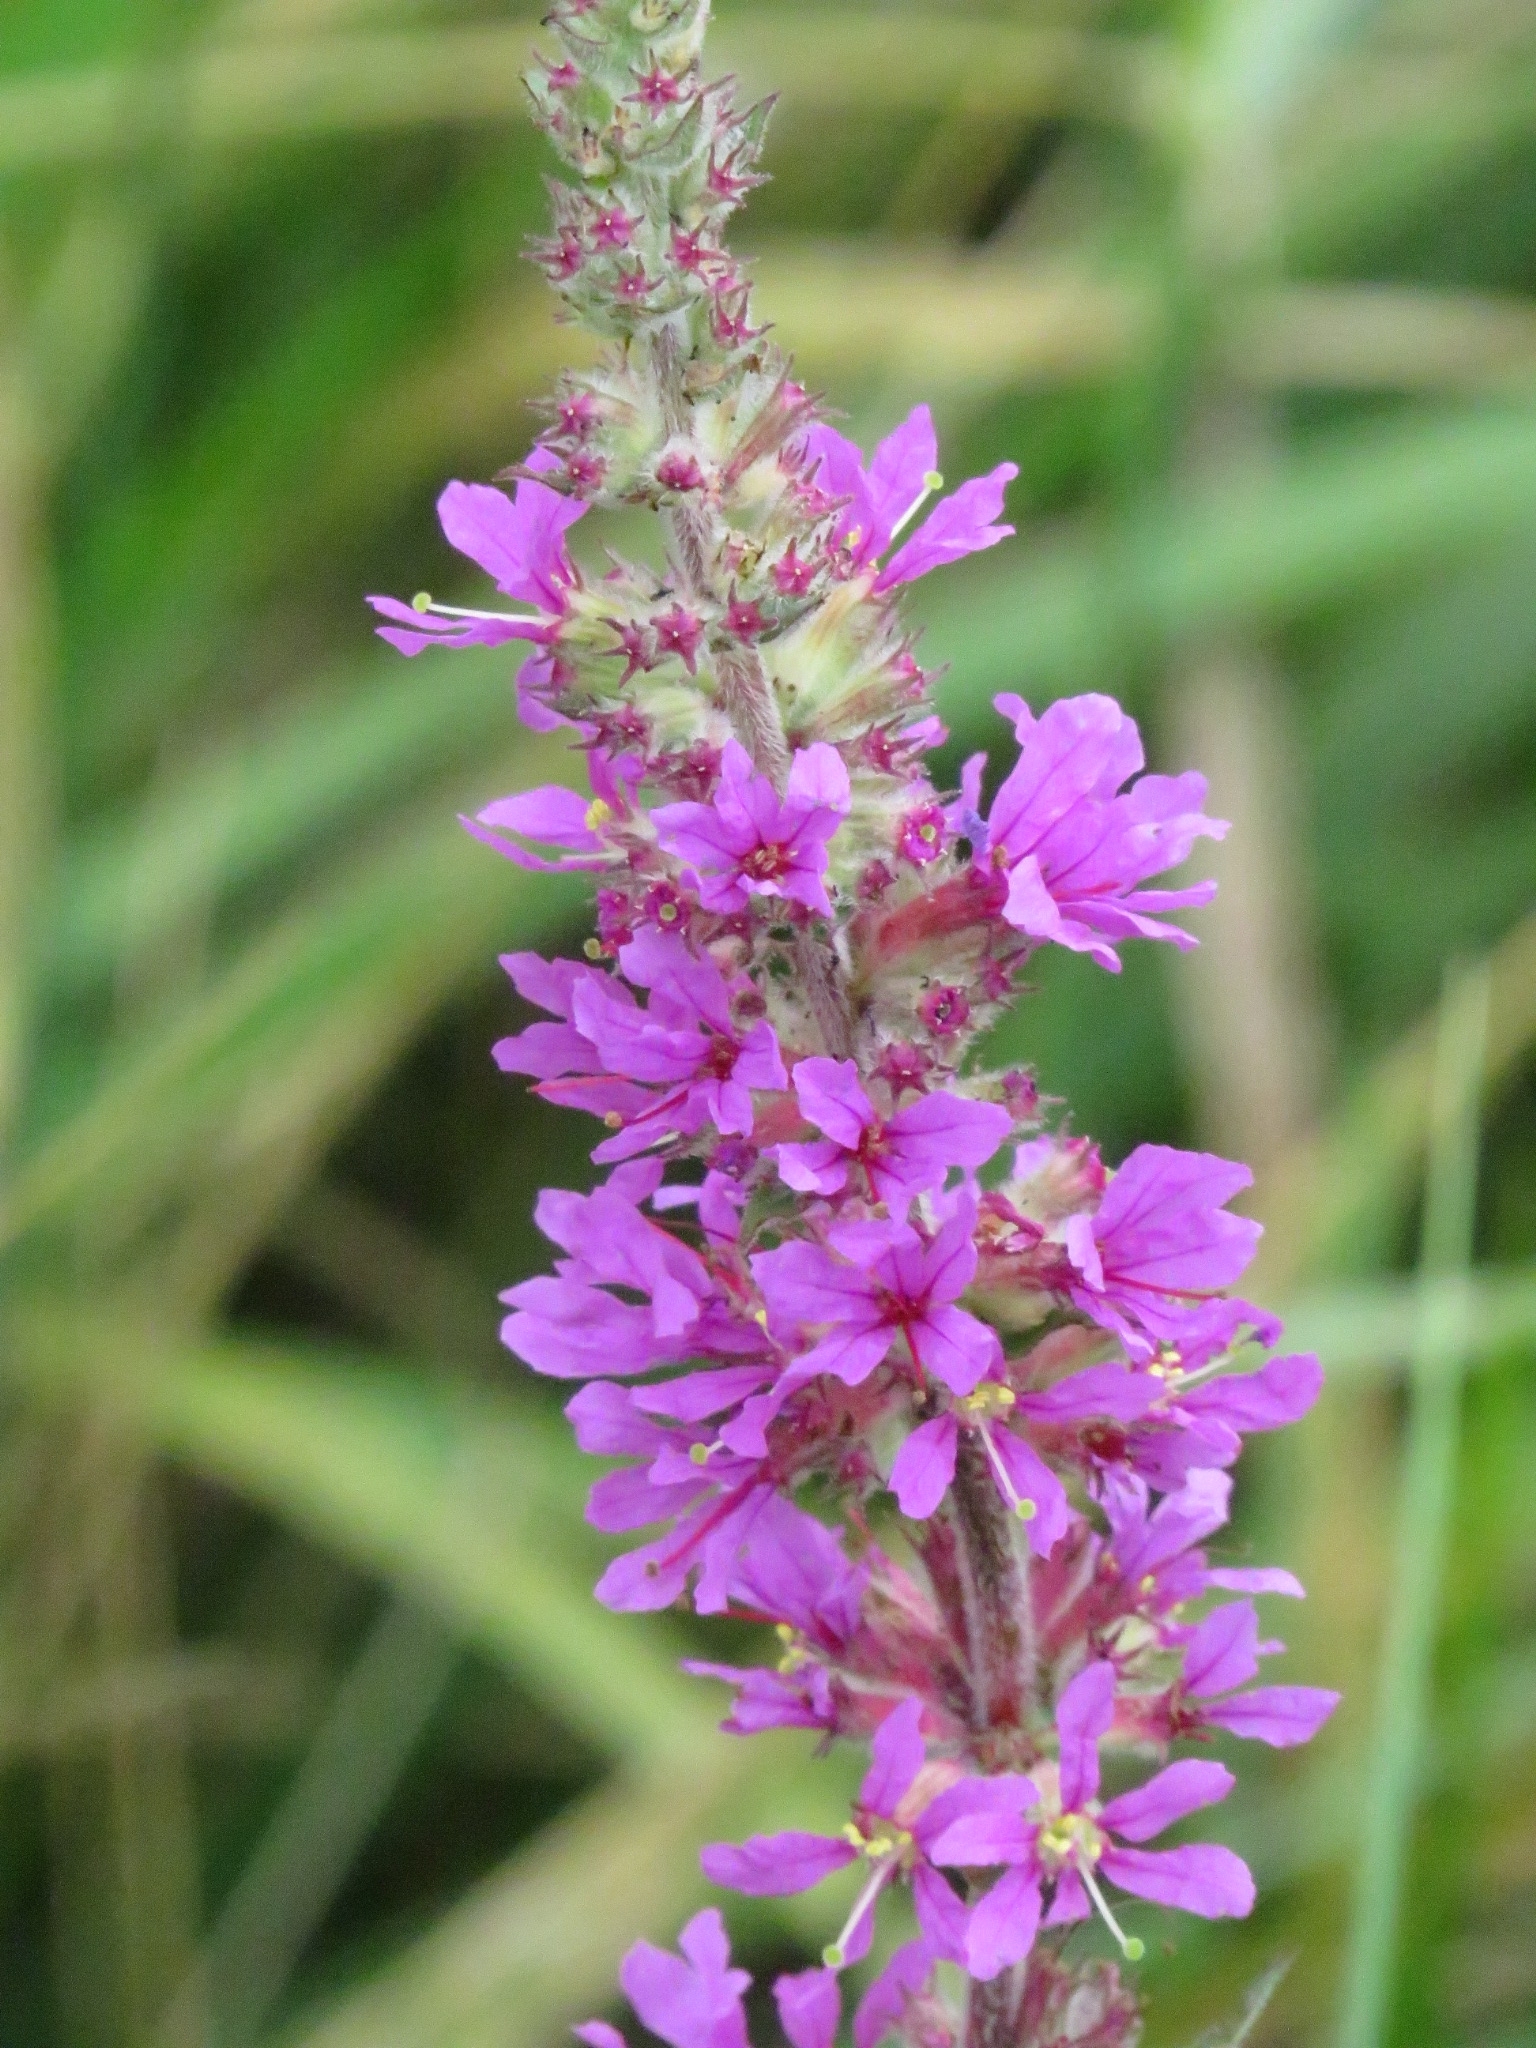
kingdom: Plantae
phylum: Tracheophyta
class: Magnoliopsida
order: Myrtales
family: Lythraceae
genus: Lythrum
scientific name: Lythrum salicaria
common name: Purple loosestrife
